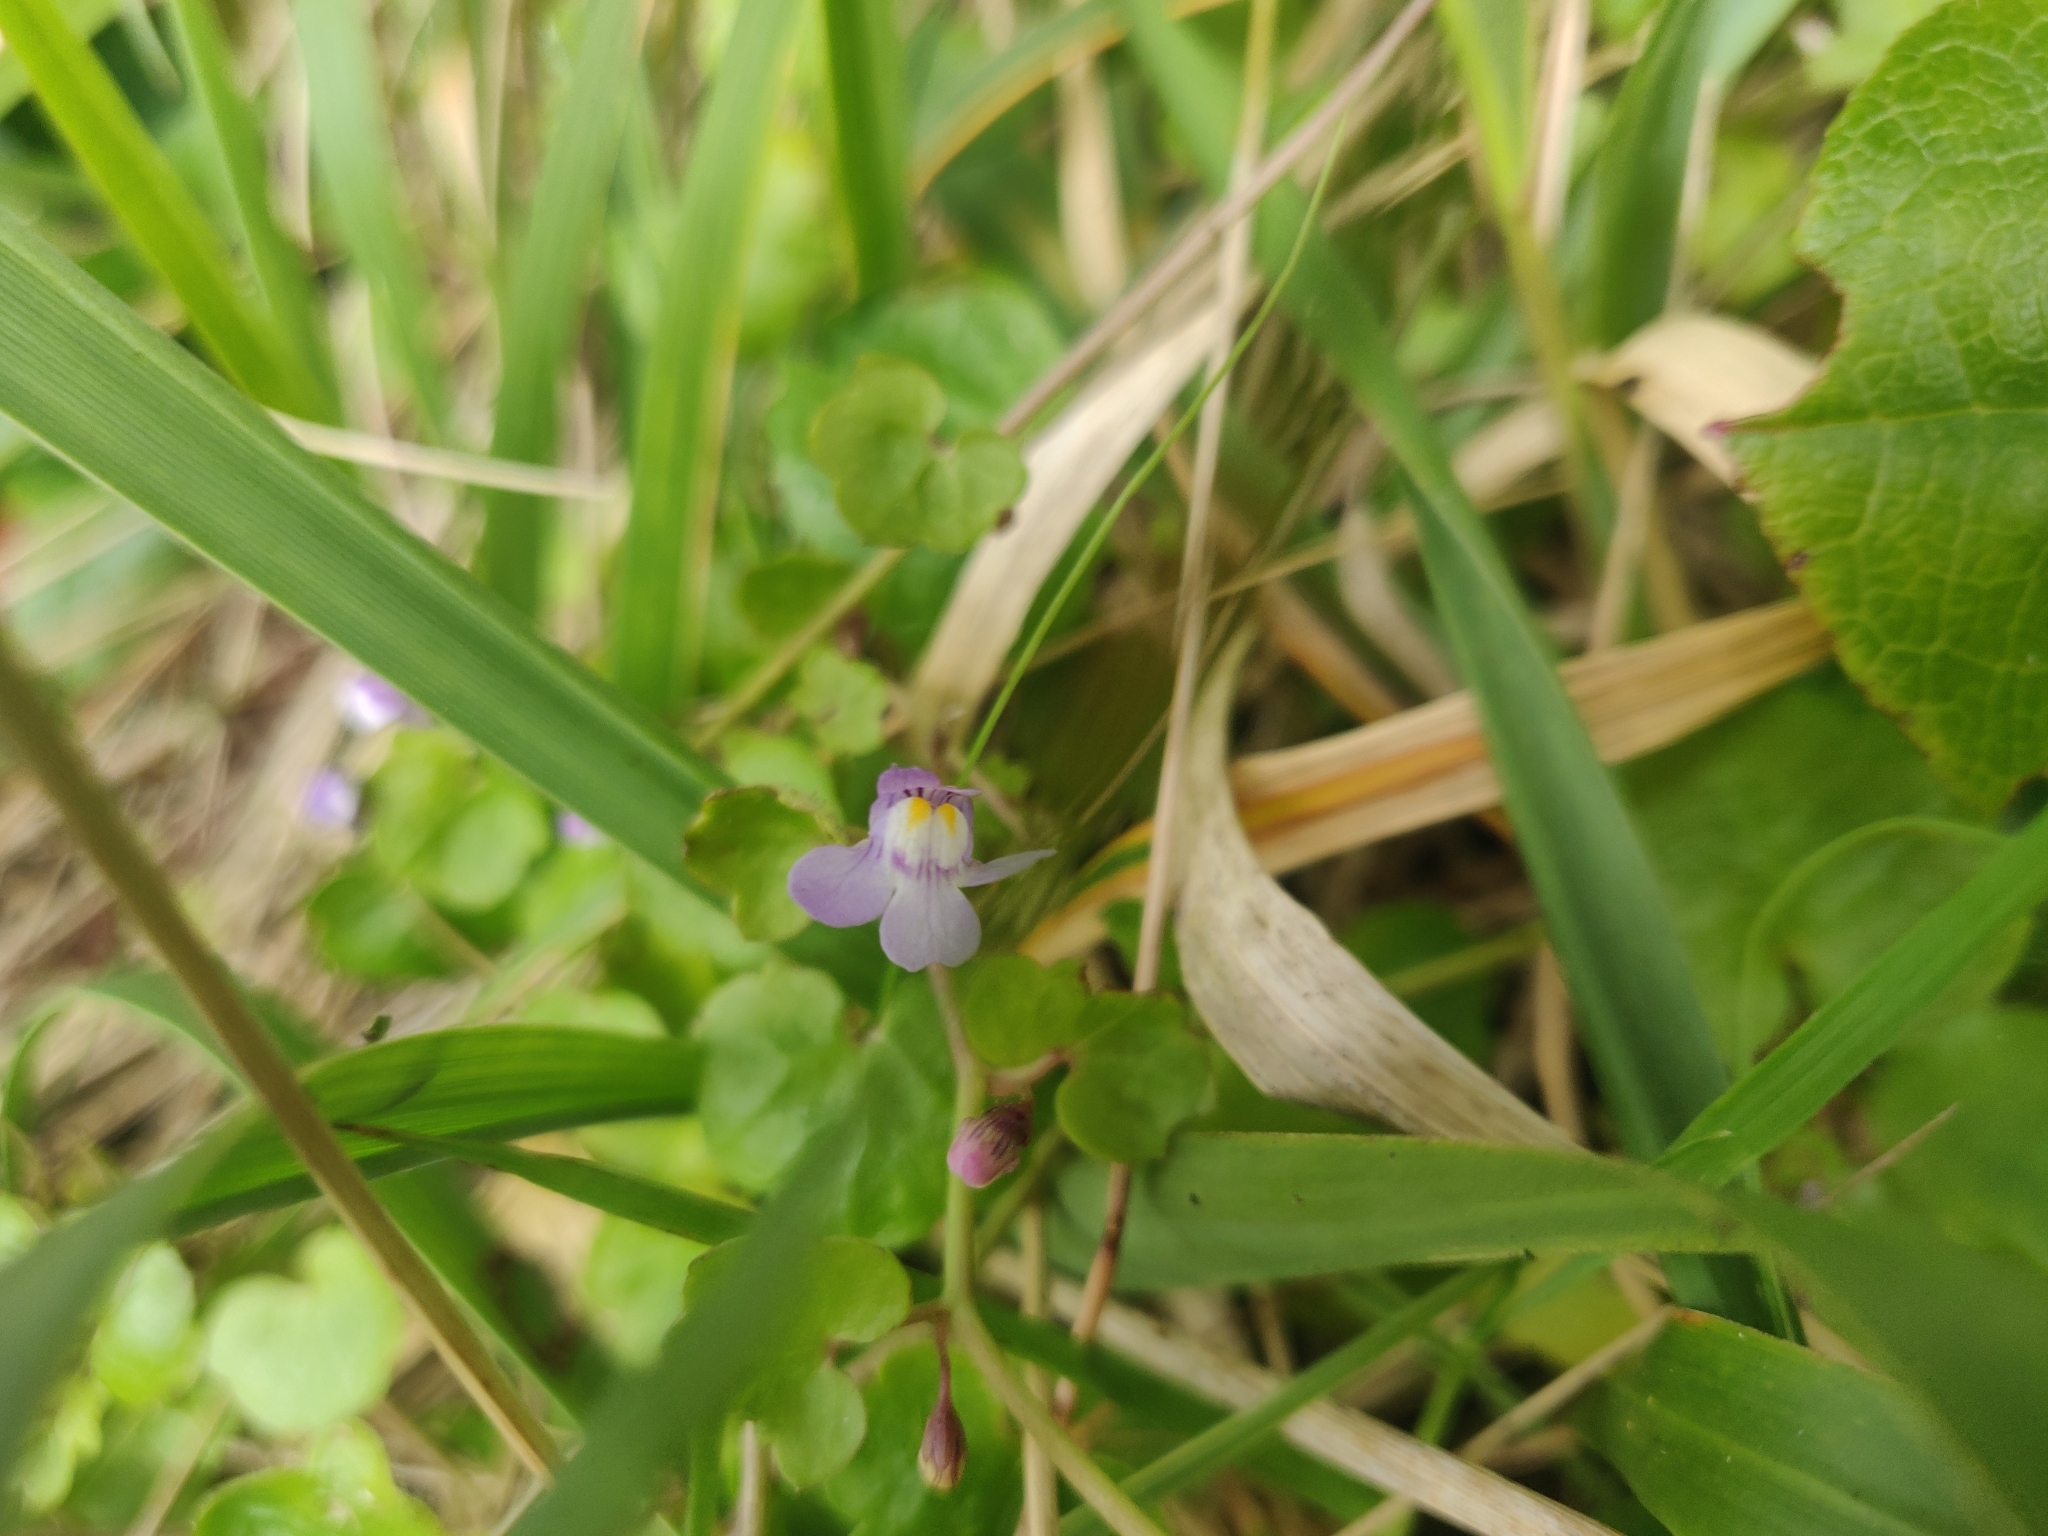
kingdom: Plantae
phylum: Tracheophyta
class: Magnoliopsida
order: Lamiales
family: Plantaginaceae
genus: Cymbalaria
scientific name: Cymbalaria muralis
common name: Ivy-leaved toadflax
